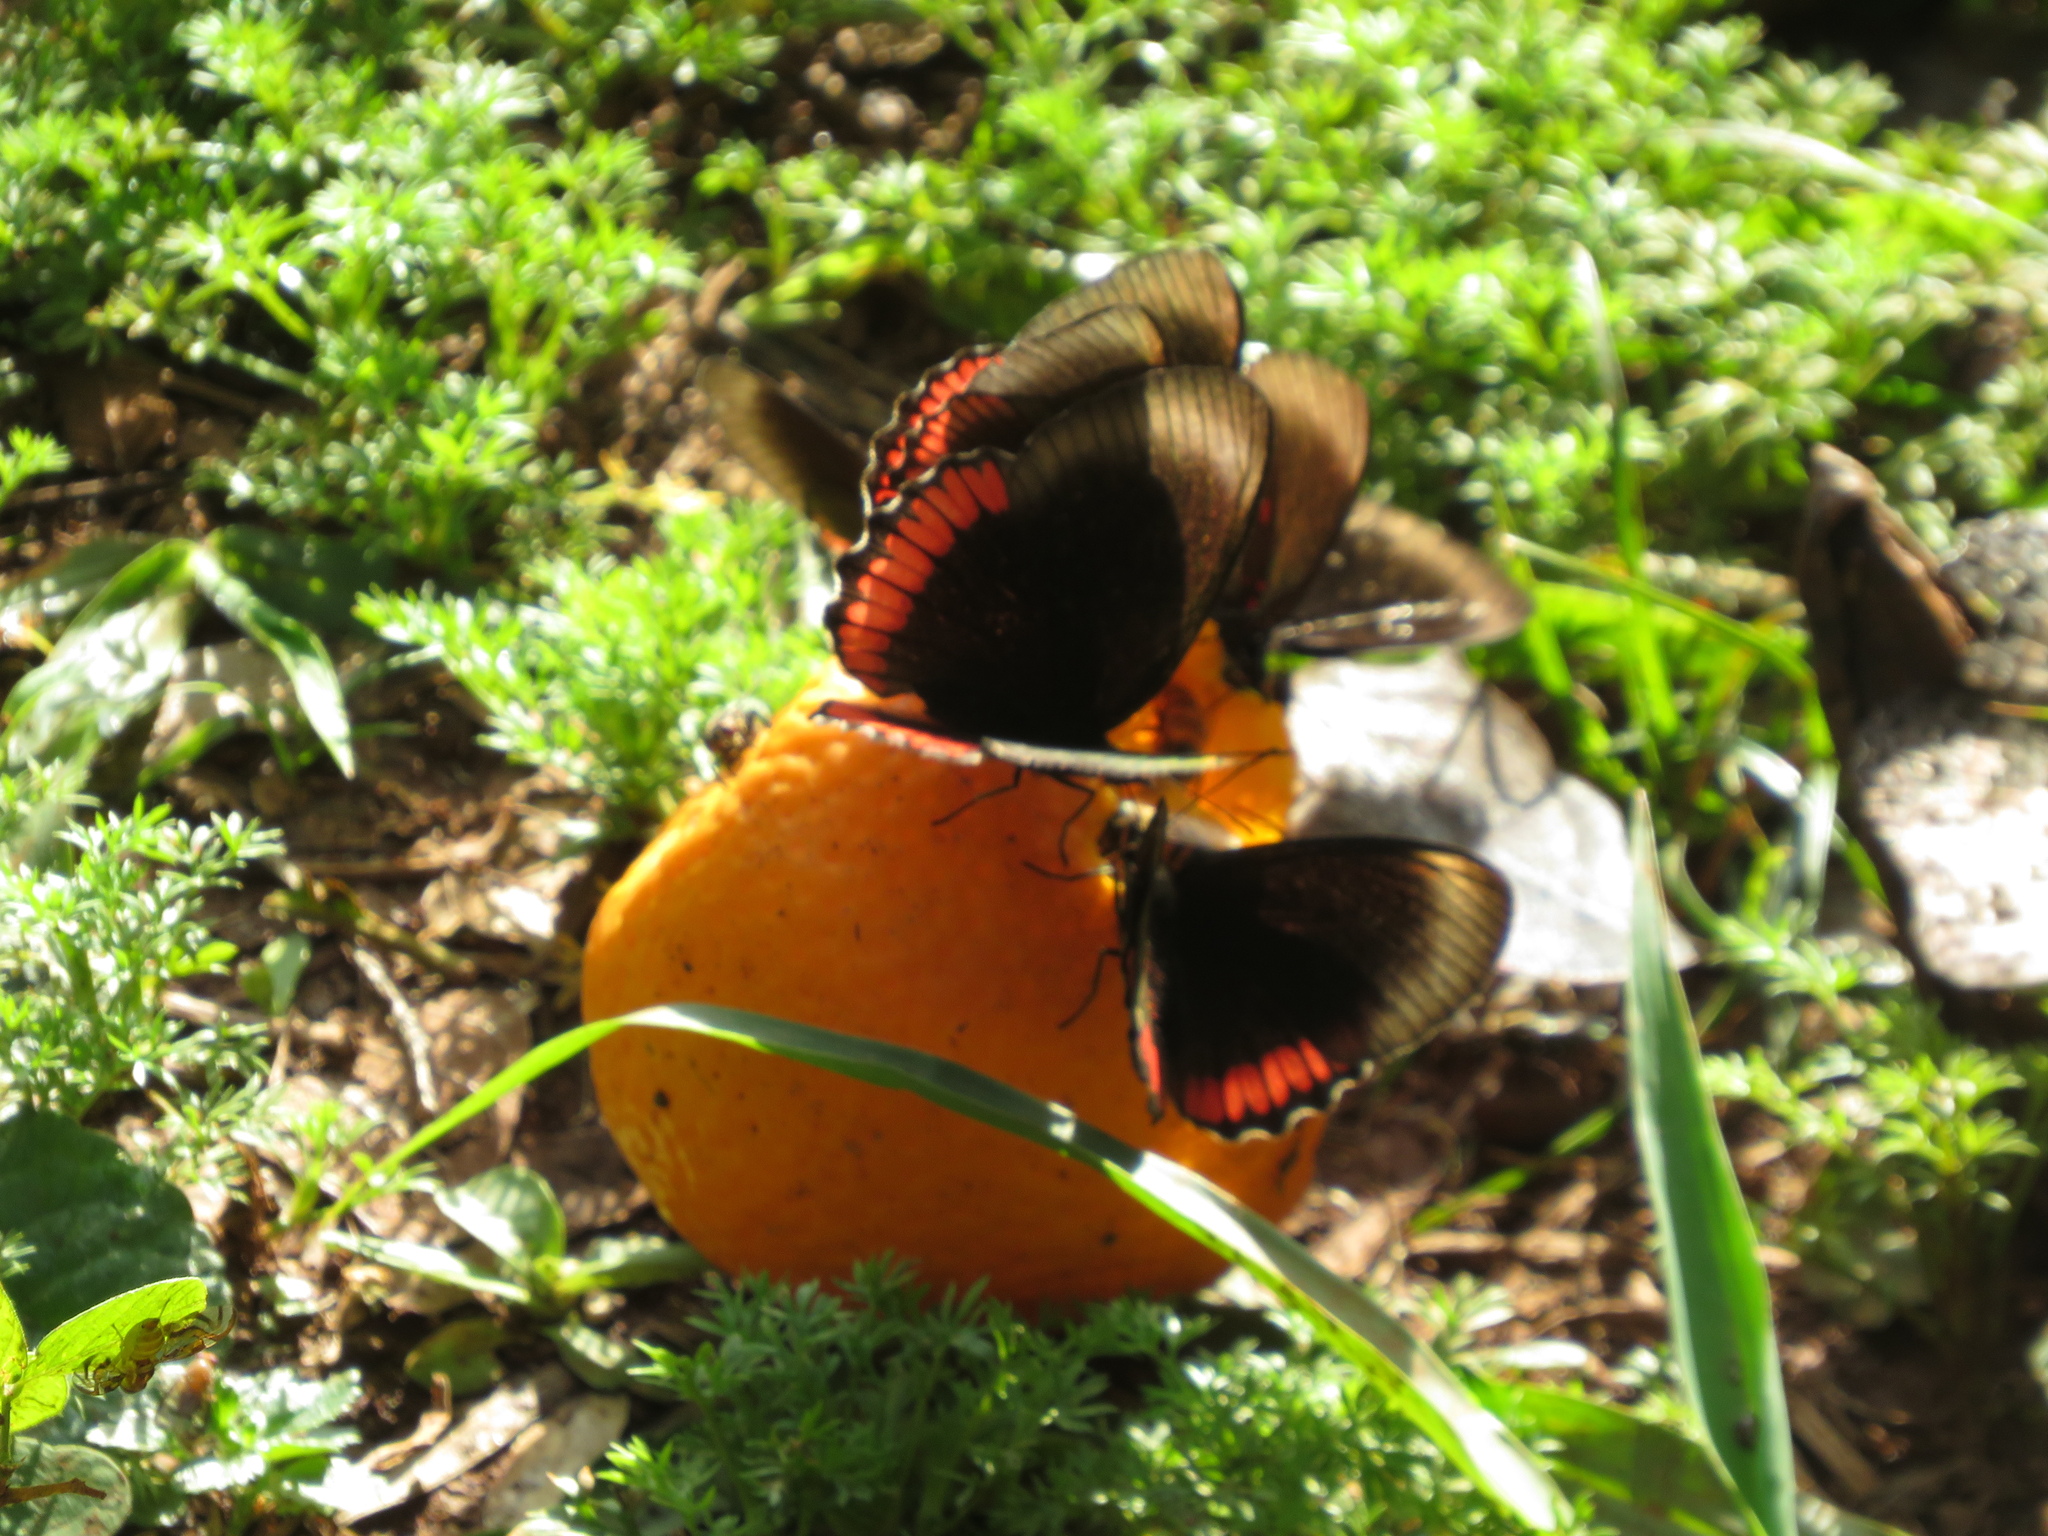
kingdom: Animalia
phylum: Arthropoda
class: Insecta
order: Lepidoptera
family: Sesiidae
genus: Sesia
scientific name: Sesia Biblis hyperia
